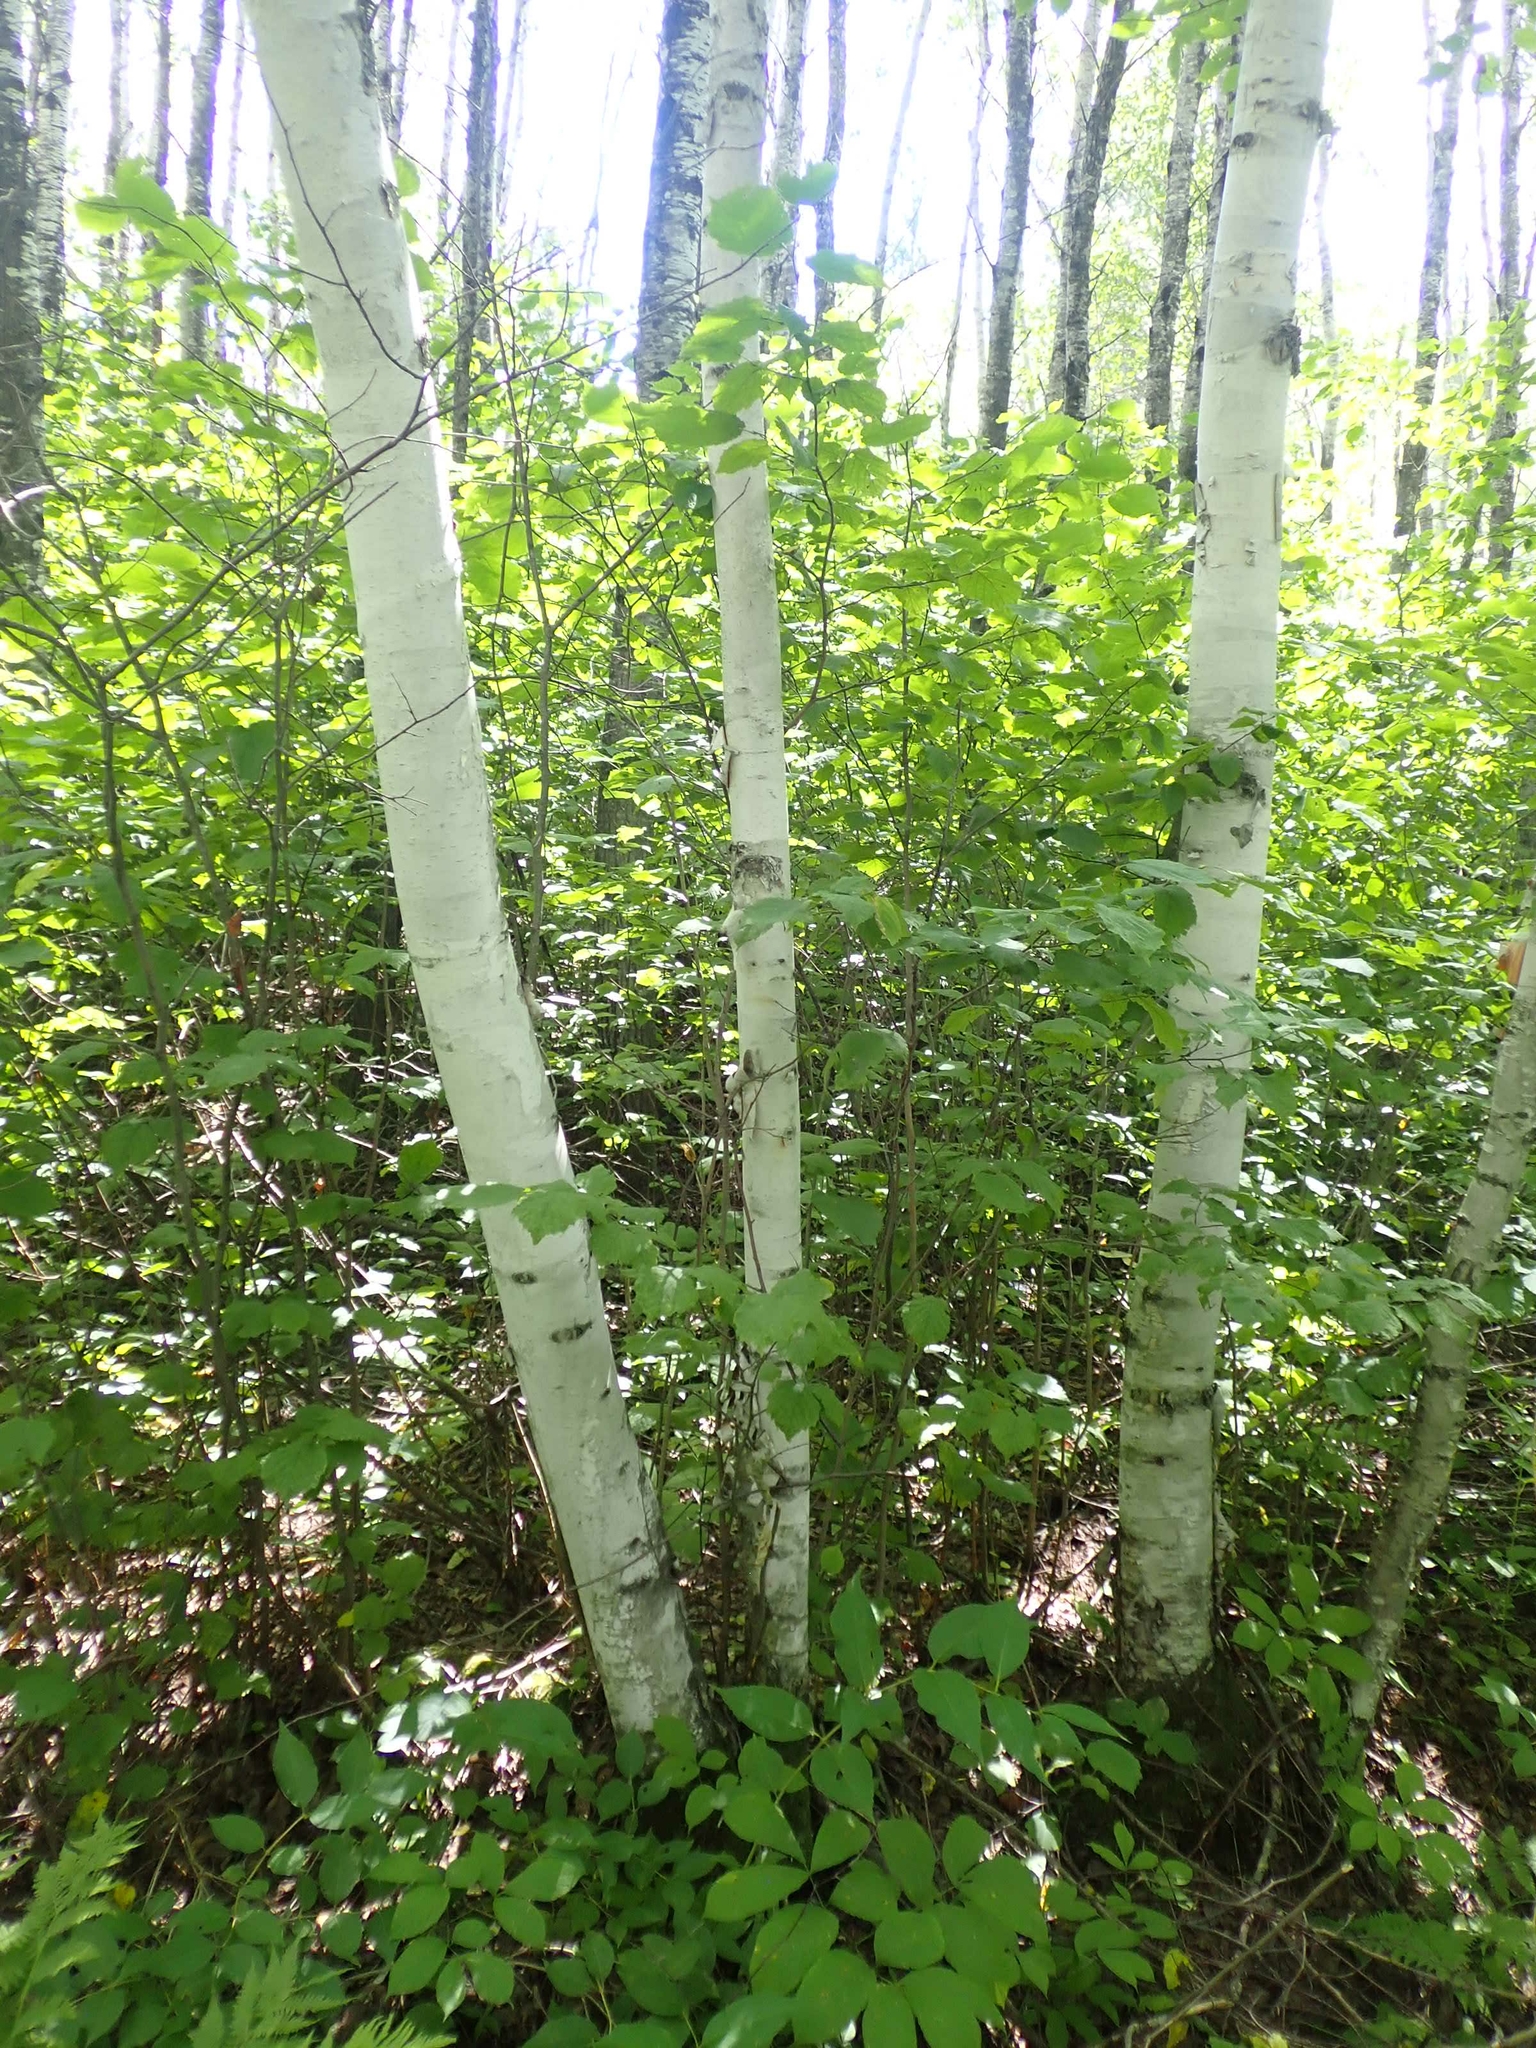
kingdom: Plantae
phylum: Tracheophyta
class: Magnoliopsida
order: Fagales
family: Betulaceae
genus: Betula
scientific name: Betula papyrifera
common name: Paper birch
